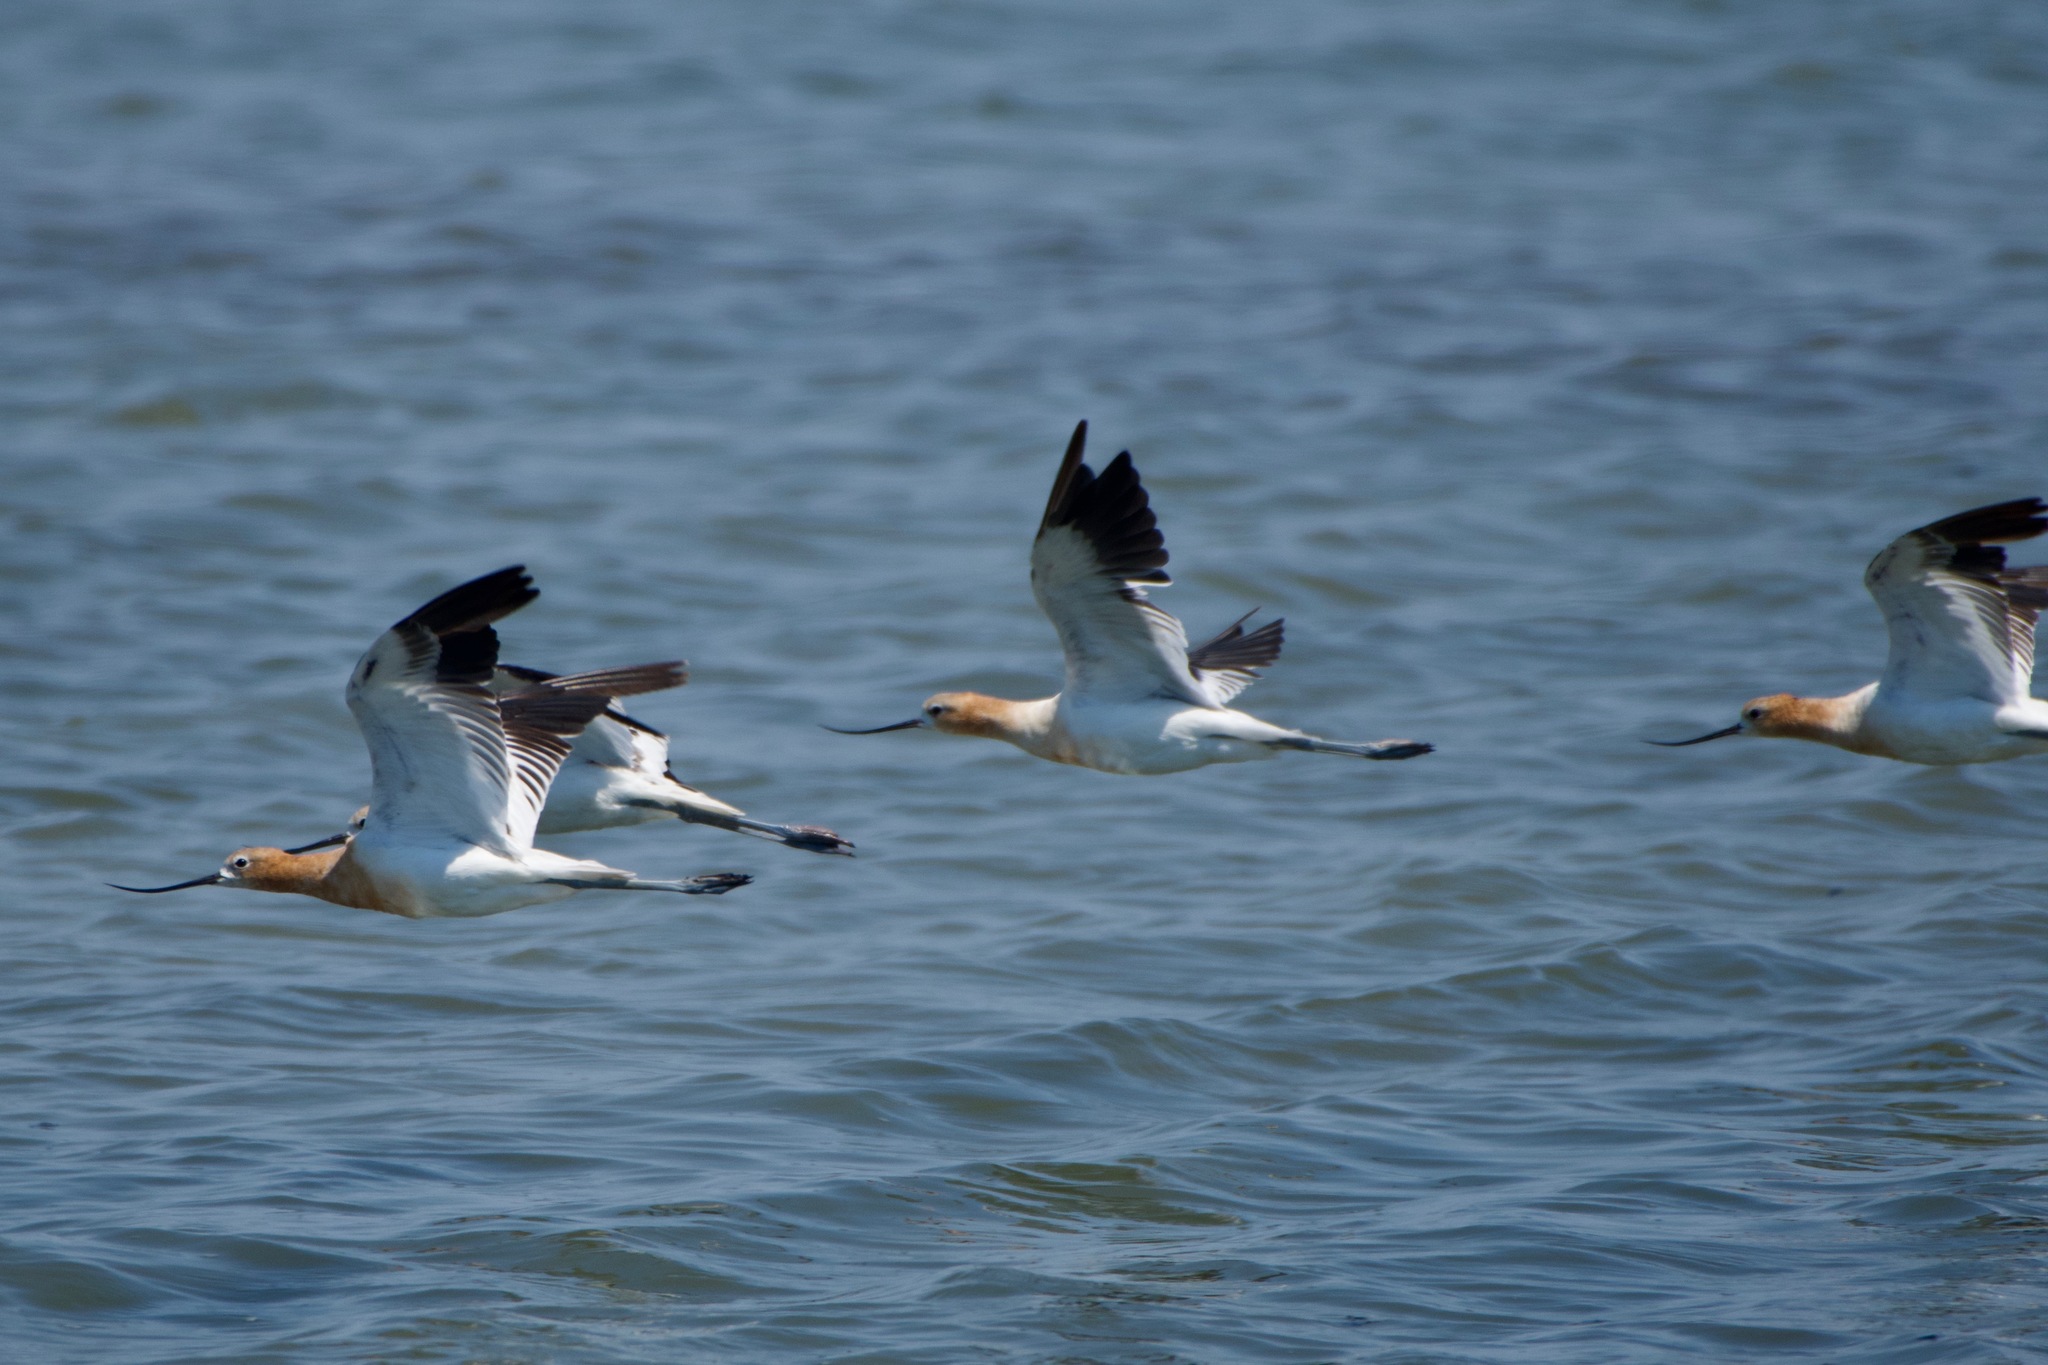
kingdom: Animalia
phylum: Chordata
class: Aves
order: Charadriiformes
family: Recurvirostridae
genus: Recurvirostra
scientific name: Recurvirostra americana
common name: American avocet
